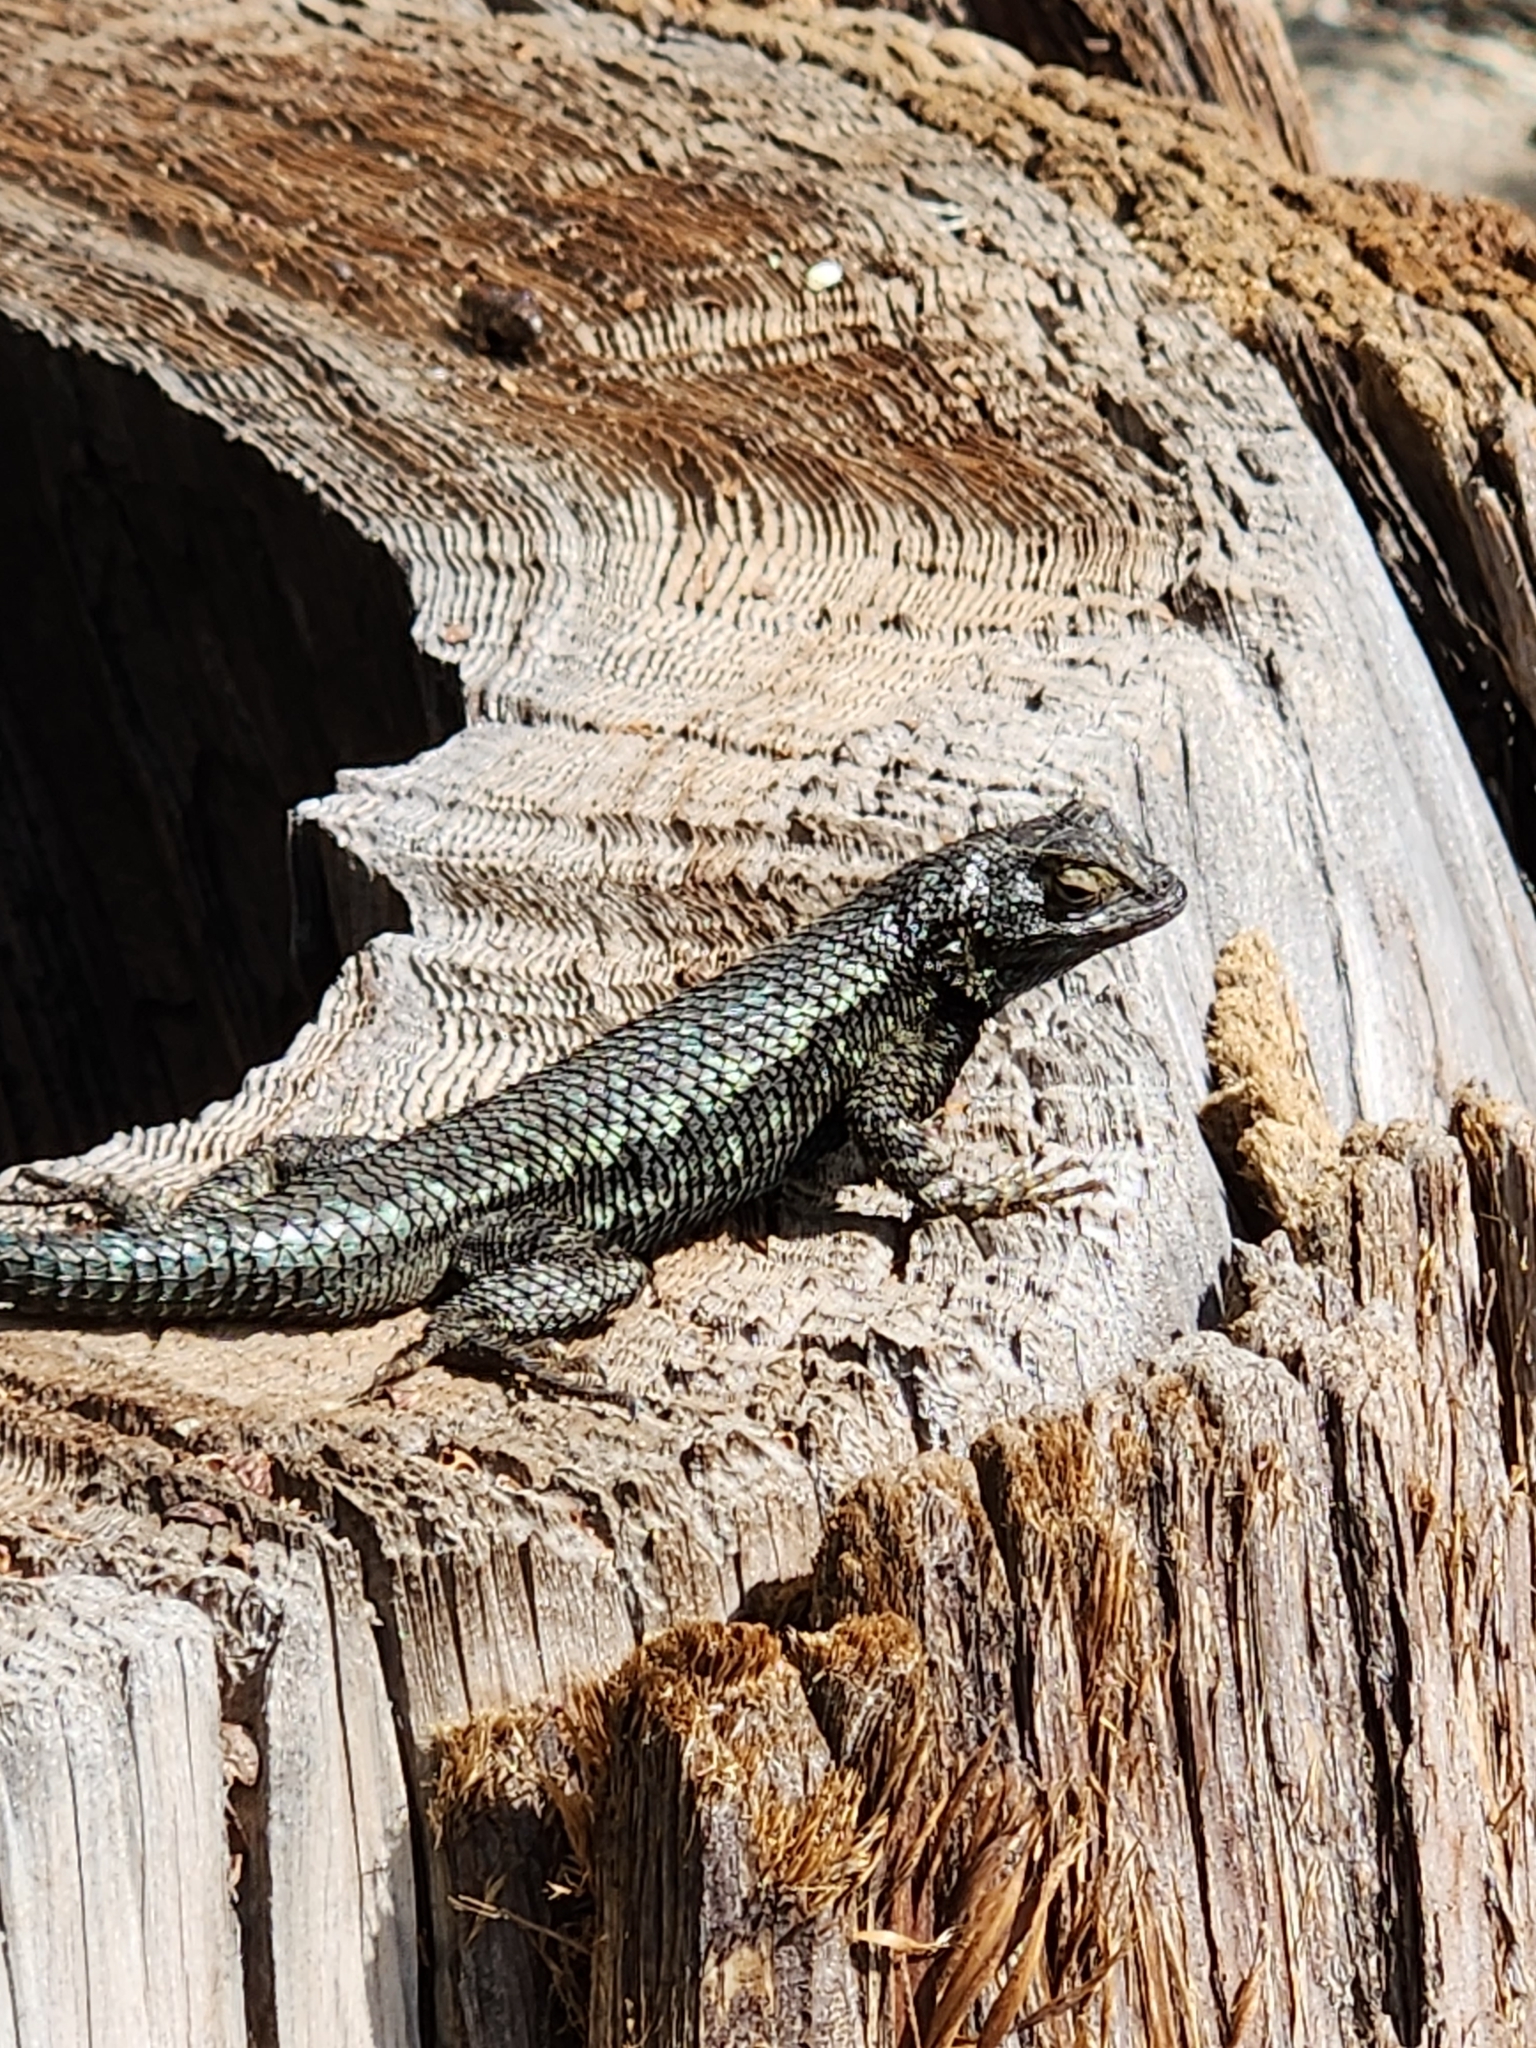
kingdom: Animalia
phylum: Chordata
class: Squamata
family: Phrynosomatidae
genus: Sceloporus
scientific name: Sceloporus occidentalis
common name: Western fence lizard
